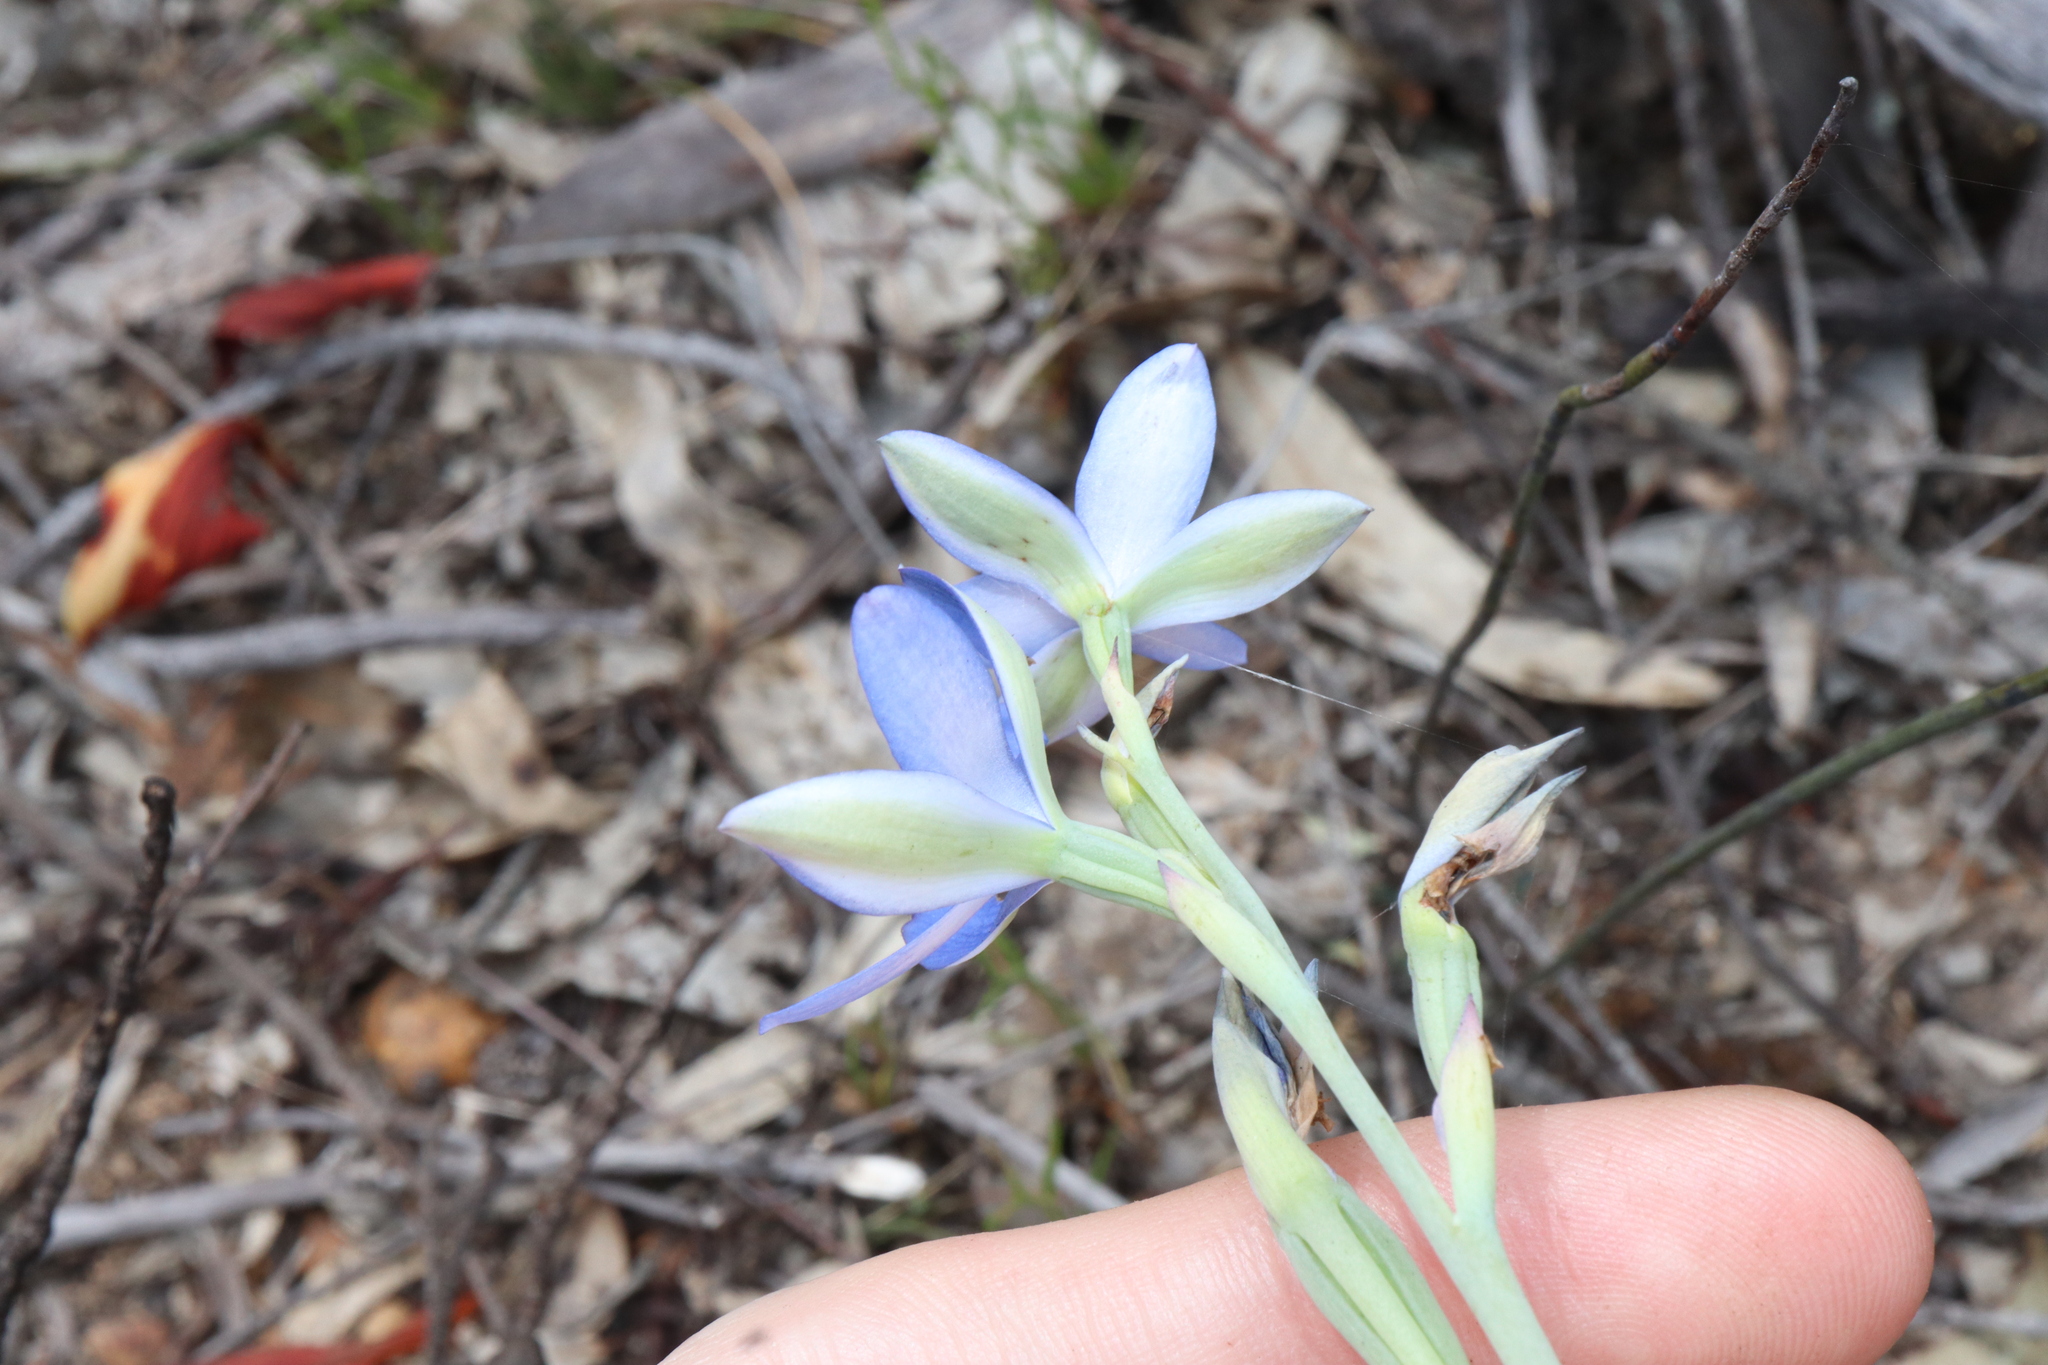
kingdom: Plantae
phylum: Tracheophyta
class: Liliopsida
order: Asparagales
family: Orchidaceae
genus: Thelymitra
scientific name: Thelymitra crinita
